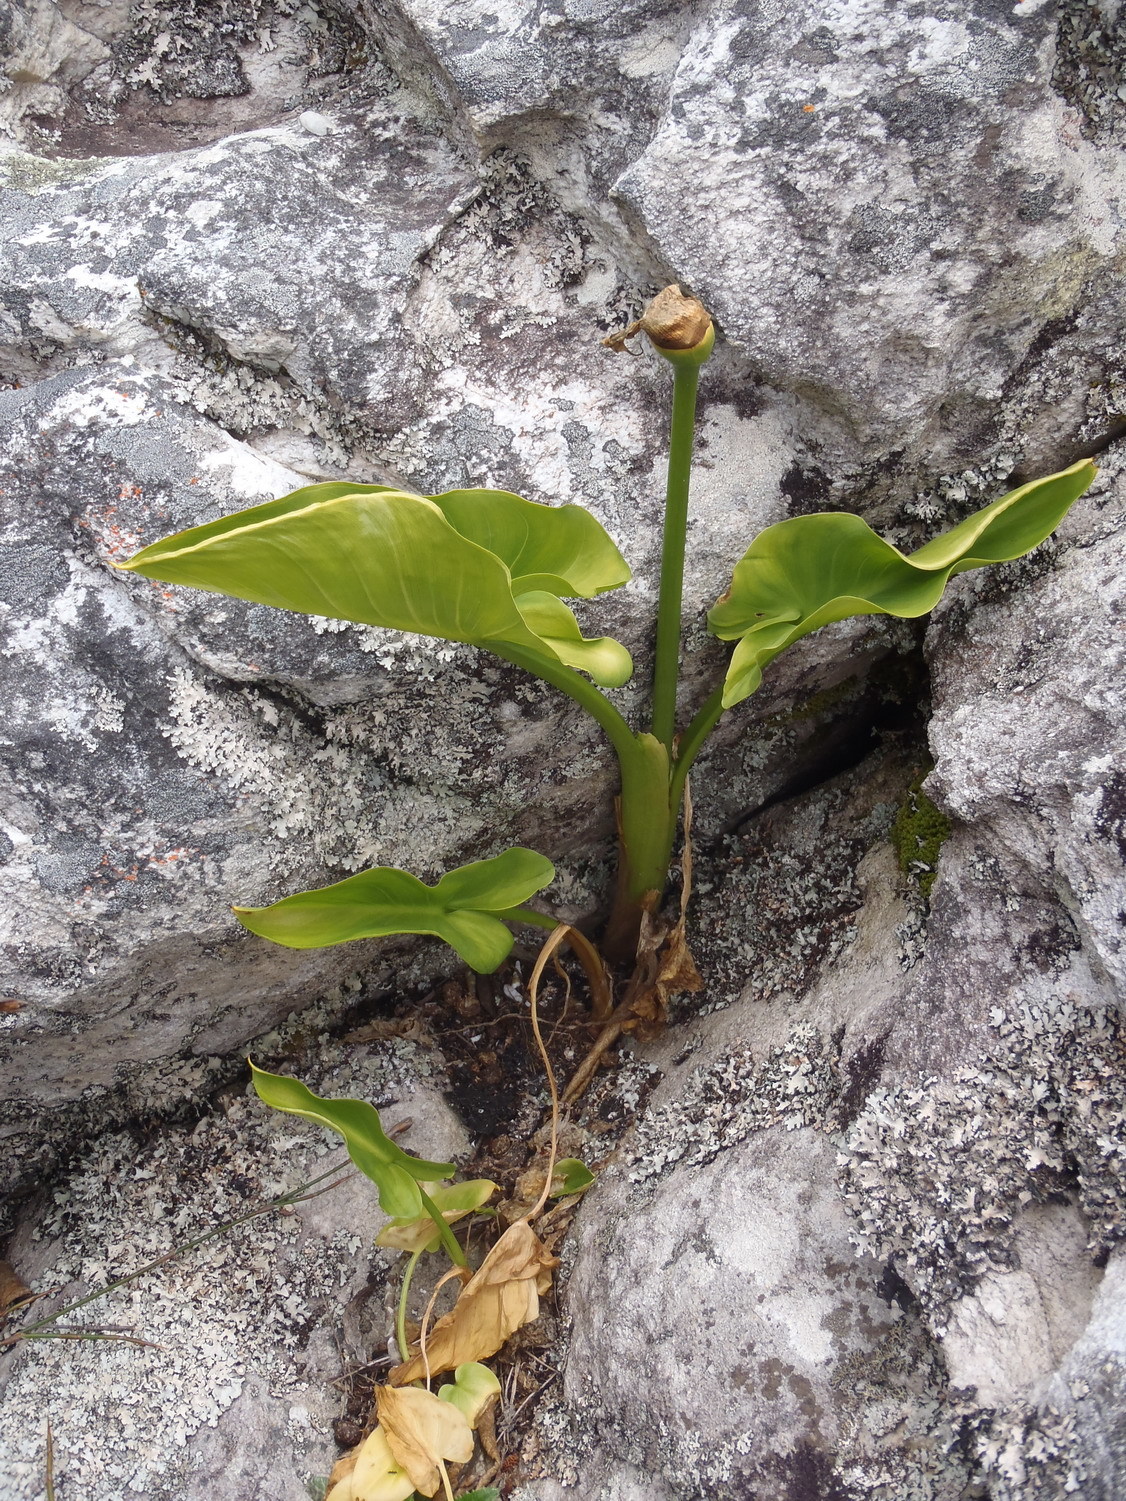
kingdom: Plantae
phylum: Tracheophyta
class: Liliopsida
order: Alismatales
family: Araceae
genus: Zantedeschia
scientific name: Zantedeschia aethiopica
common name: Altar-lily
